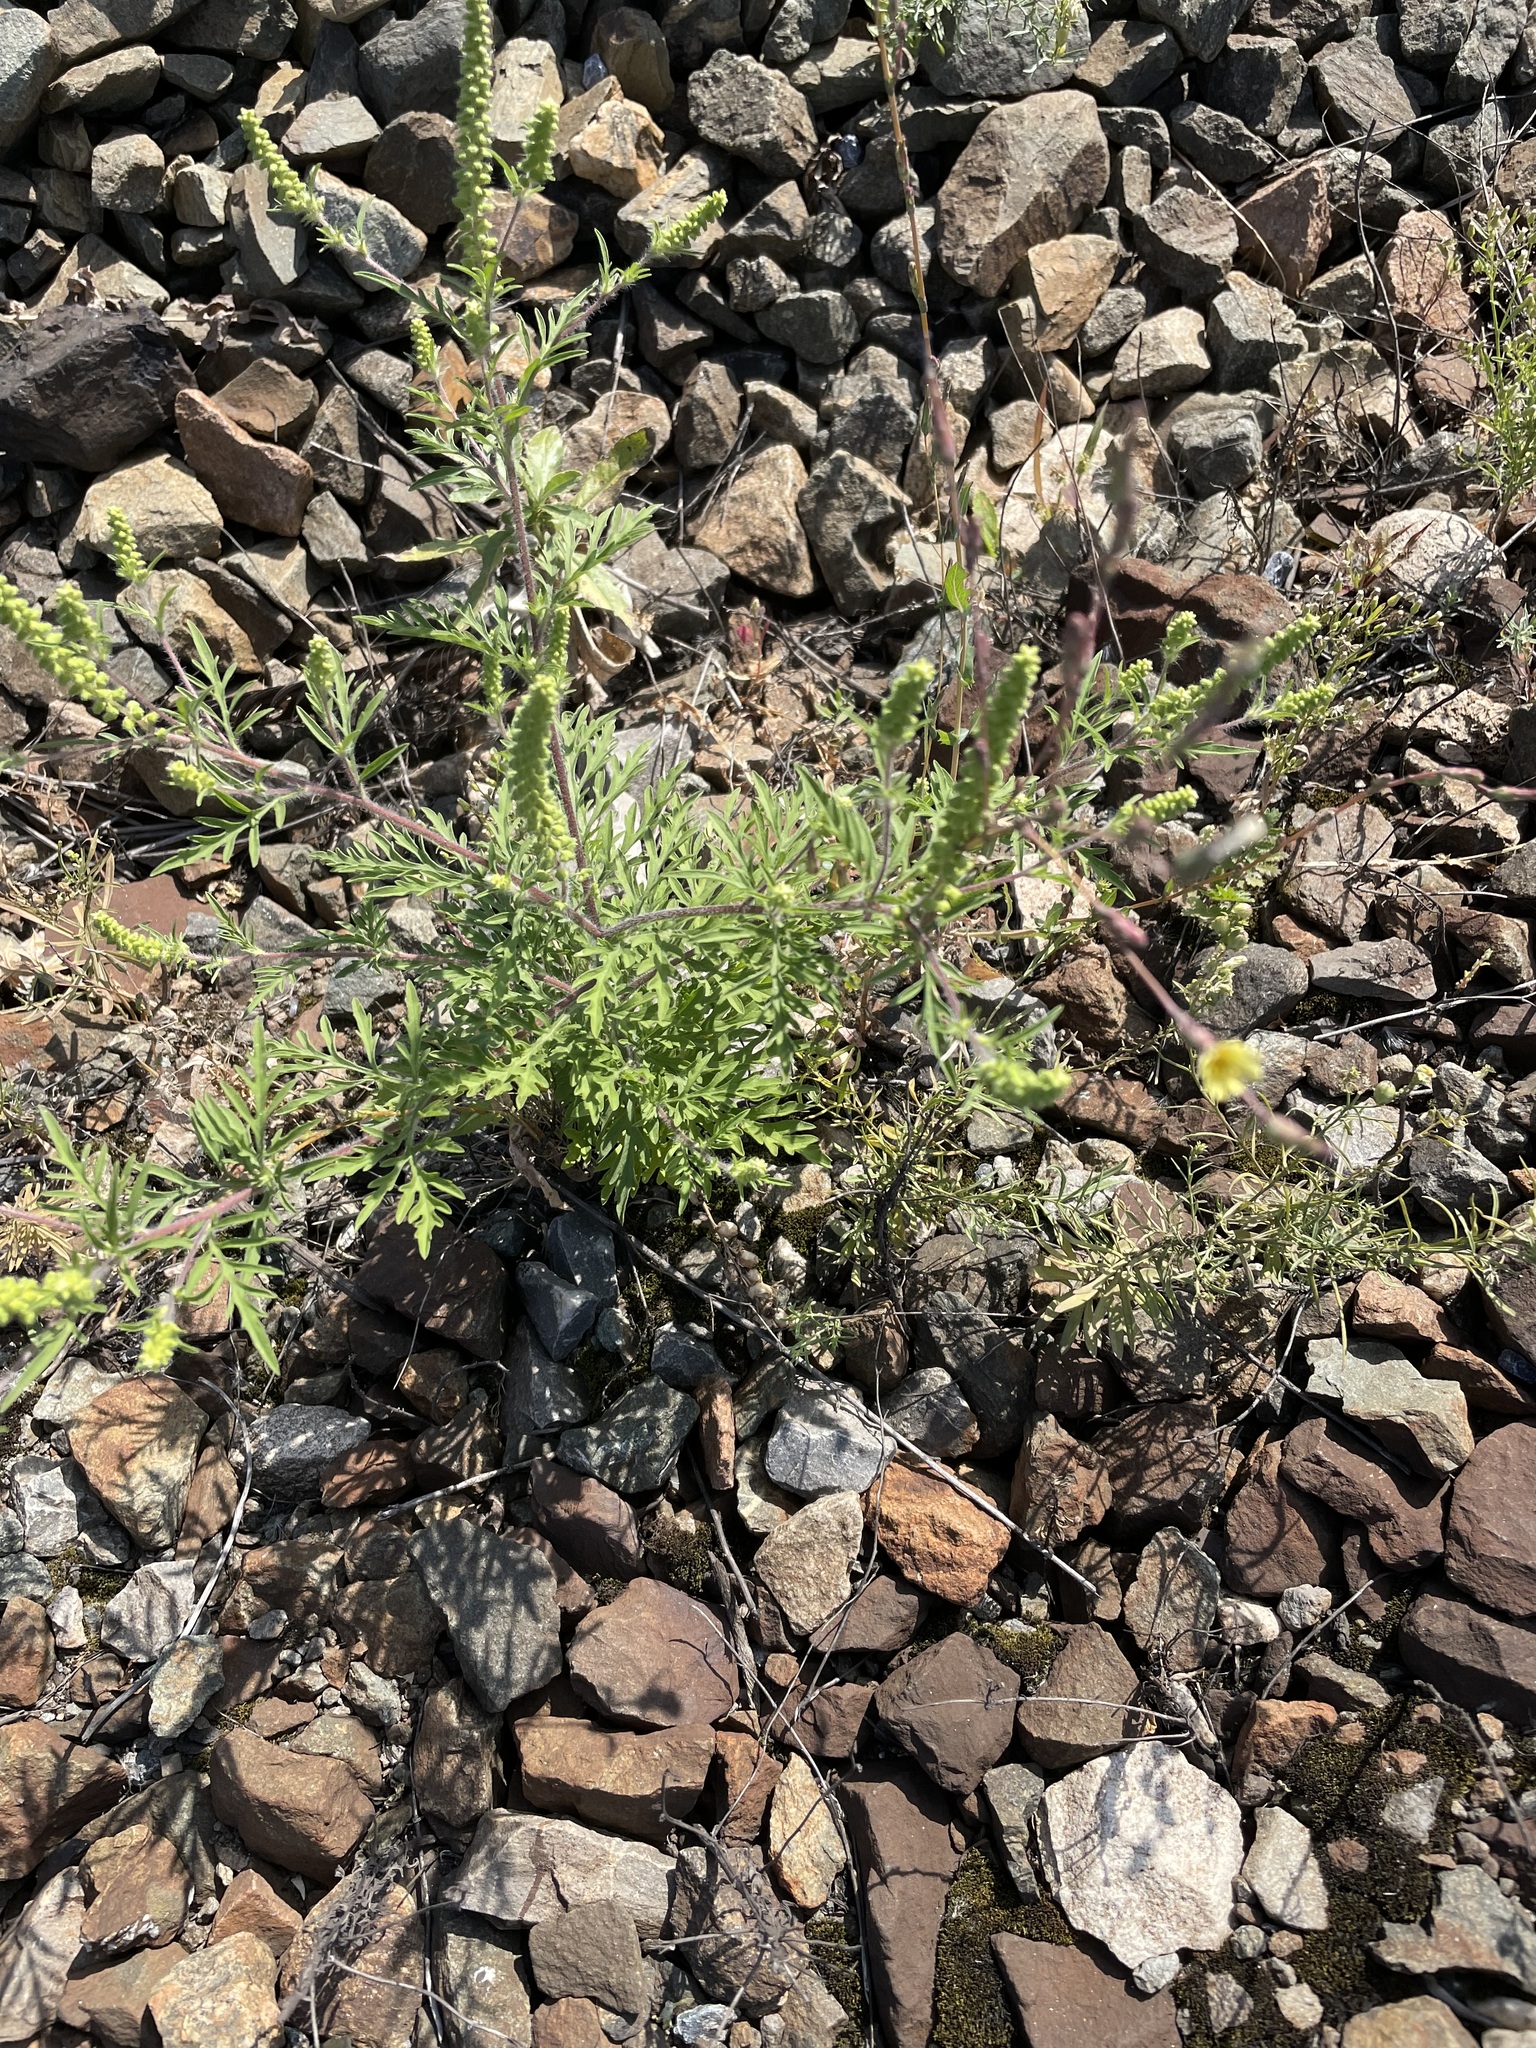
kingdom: Plantae
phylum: Tracheophyta
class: Magnoliopsida
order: Asterales
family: Asteraceae
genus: Ambrosia
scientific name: Ambrosia artemisiifolia
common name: Annual ragweed
